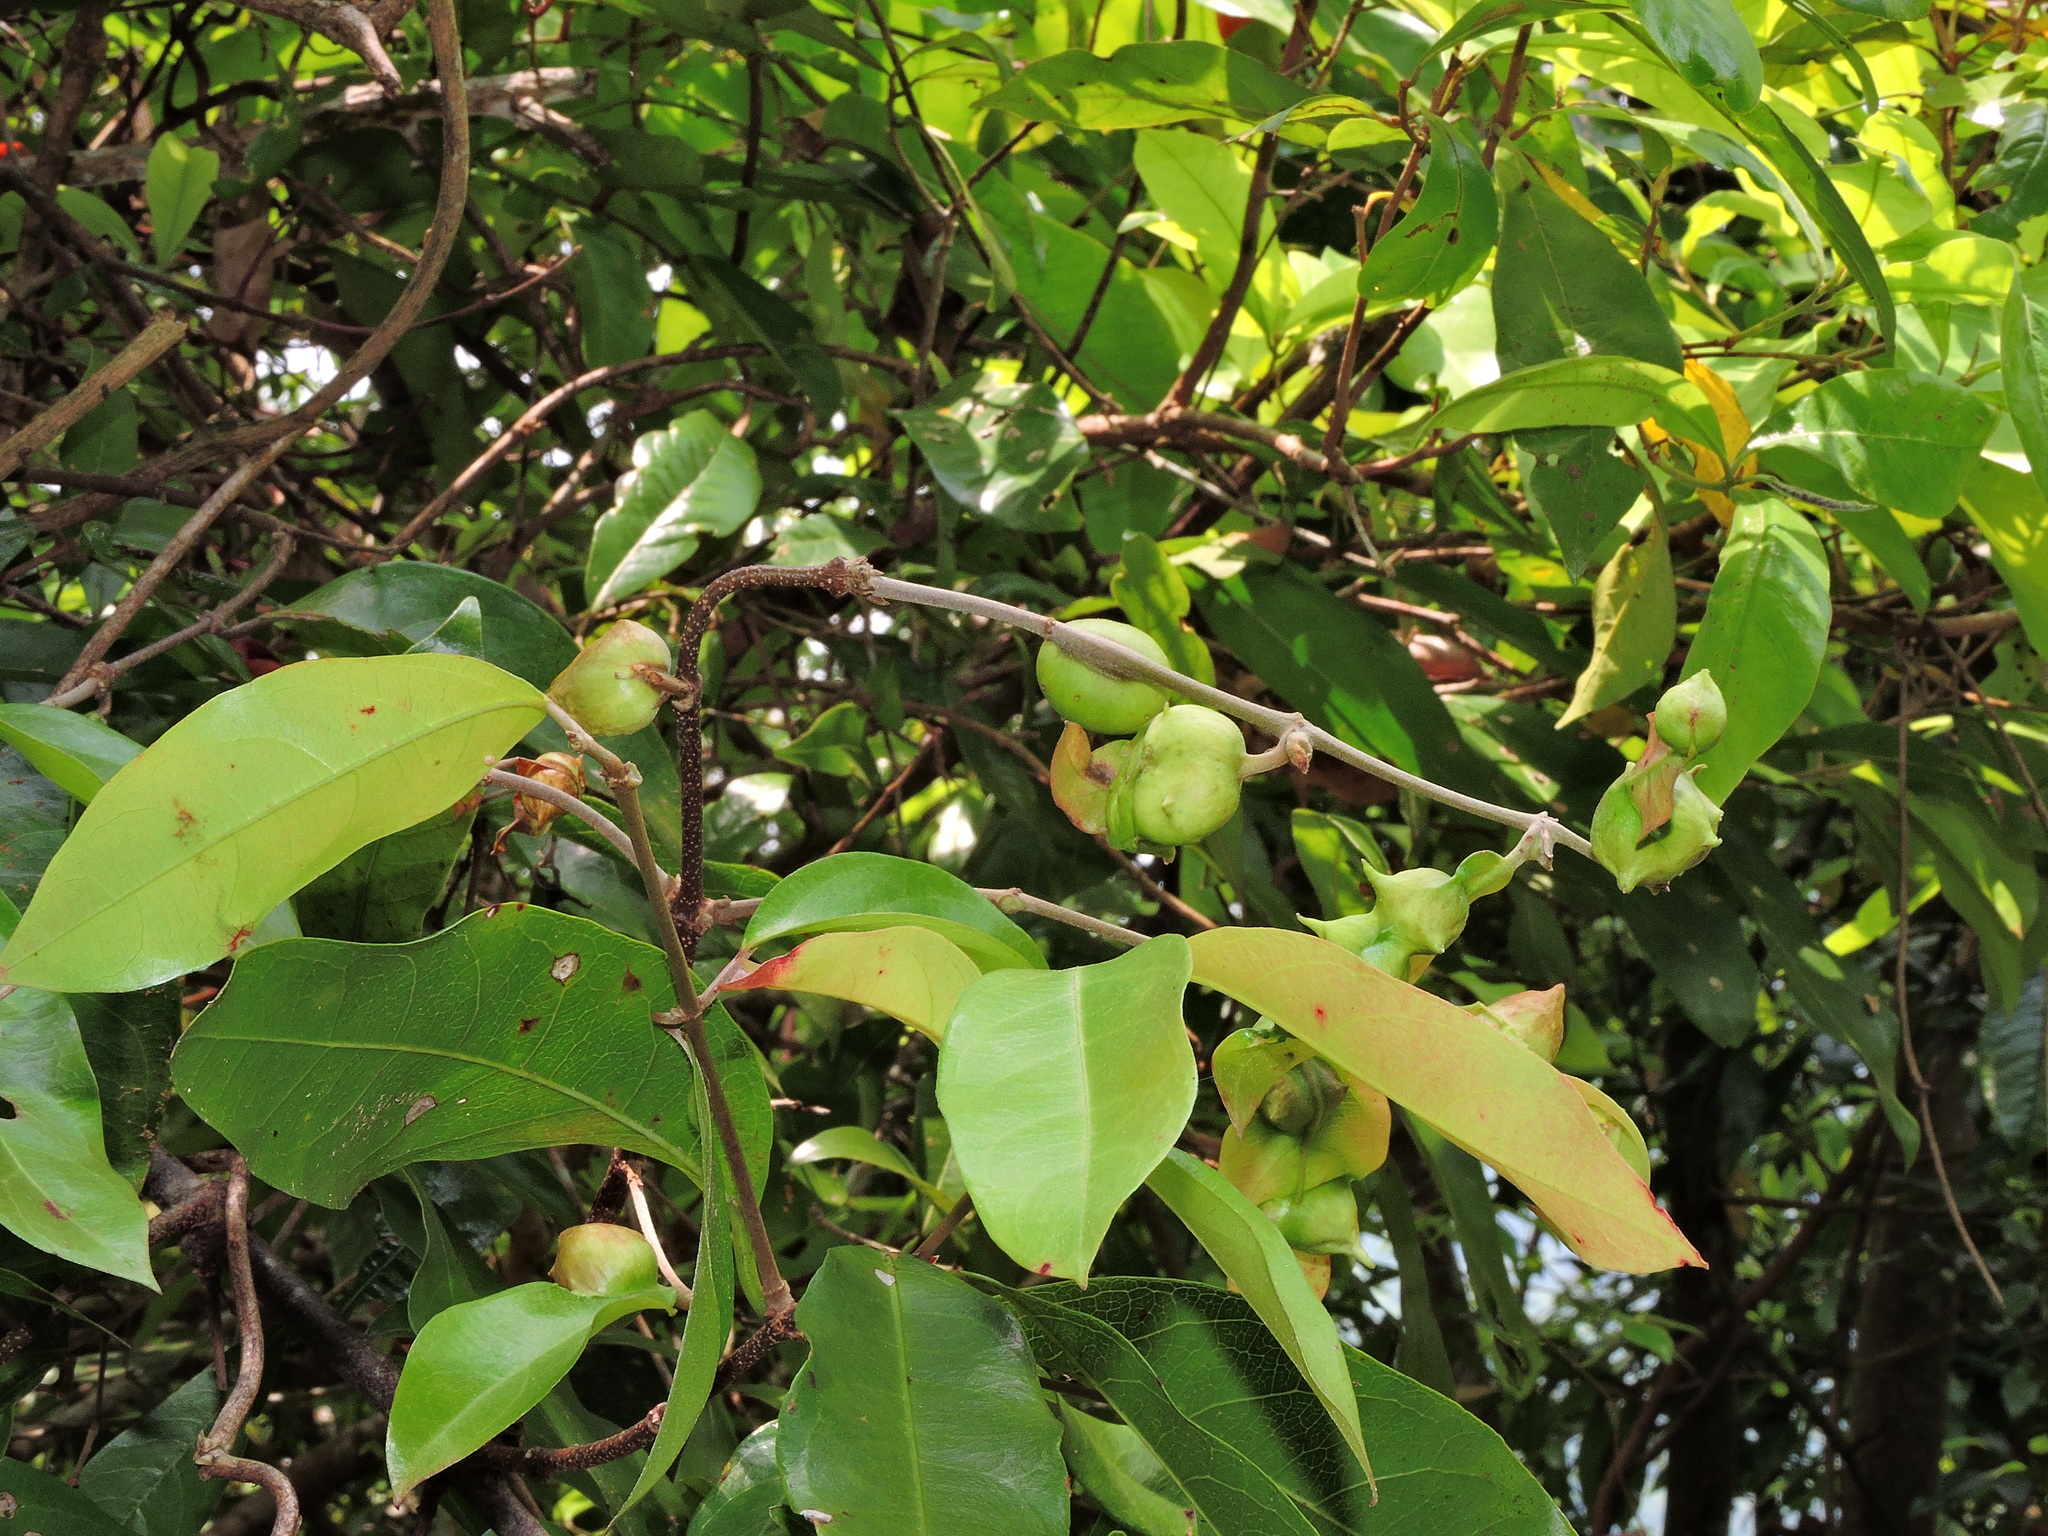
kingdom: Plantae
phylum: Tracheophyta
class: Magnoliopsida
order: Malpighiales
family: Malpighiaceae
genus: Hiptage
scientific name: Hiptage benghalensis
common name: Hiptage
